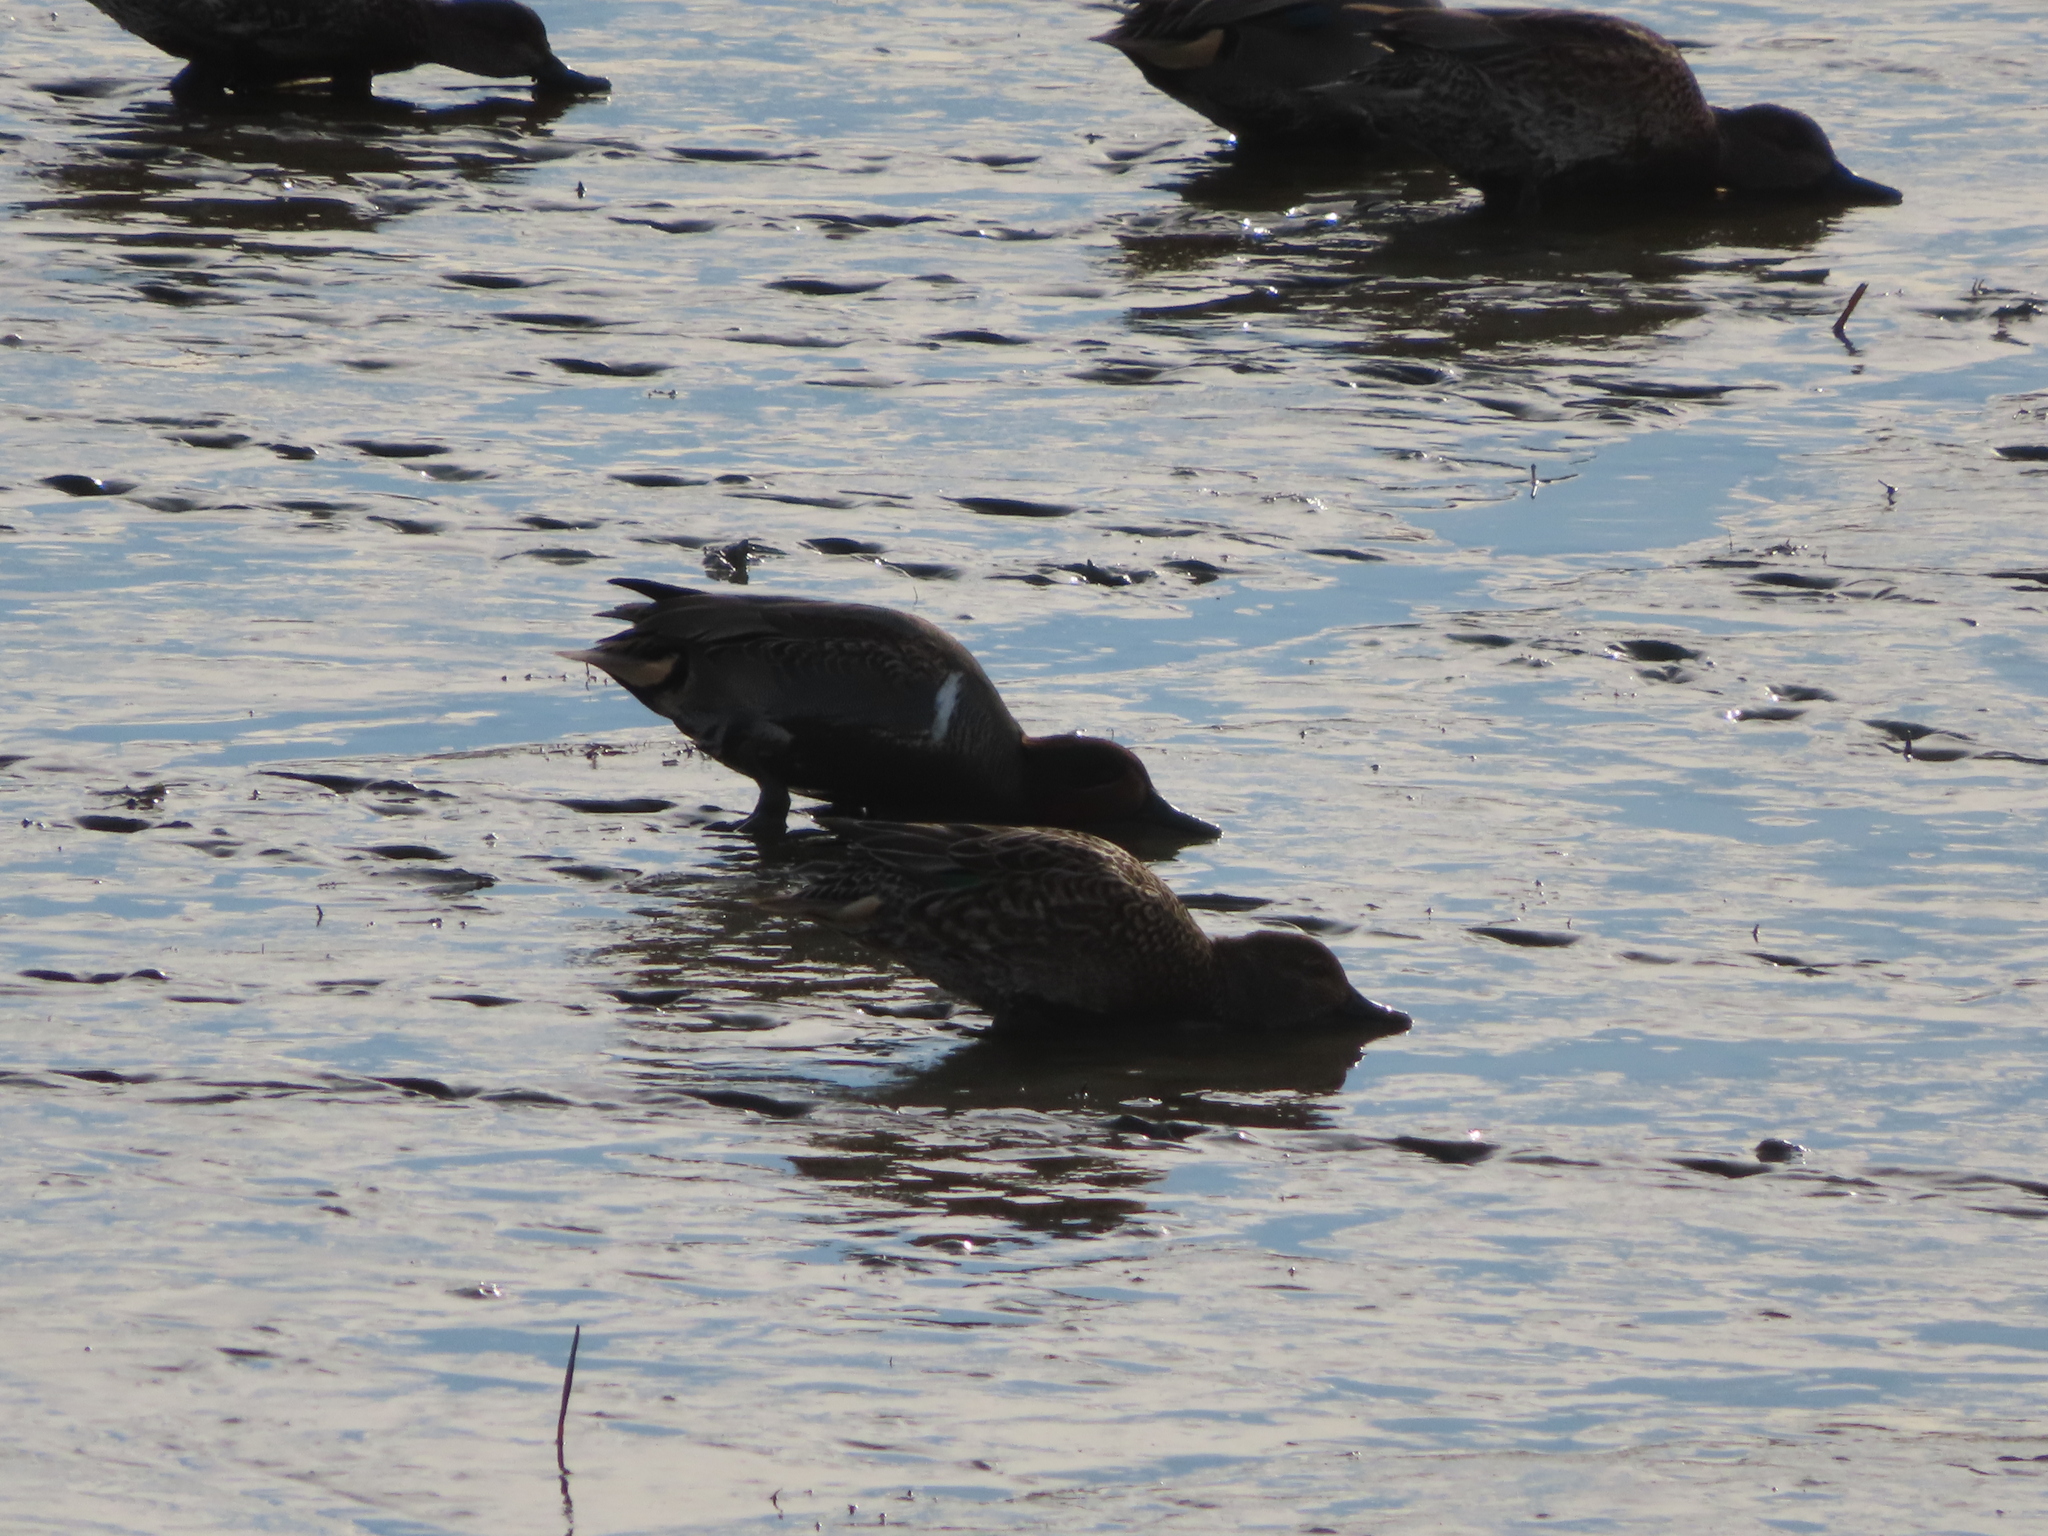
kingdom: Animalia
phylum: Chordata
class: Aves
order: Anseriformes
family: Anatidae
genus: Anas
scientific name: Anas crecca
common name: Eurasian teal
